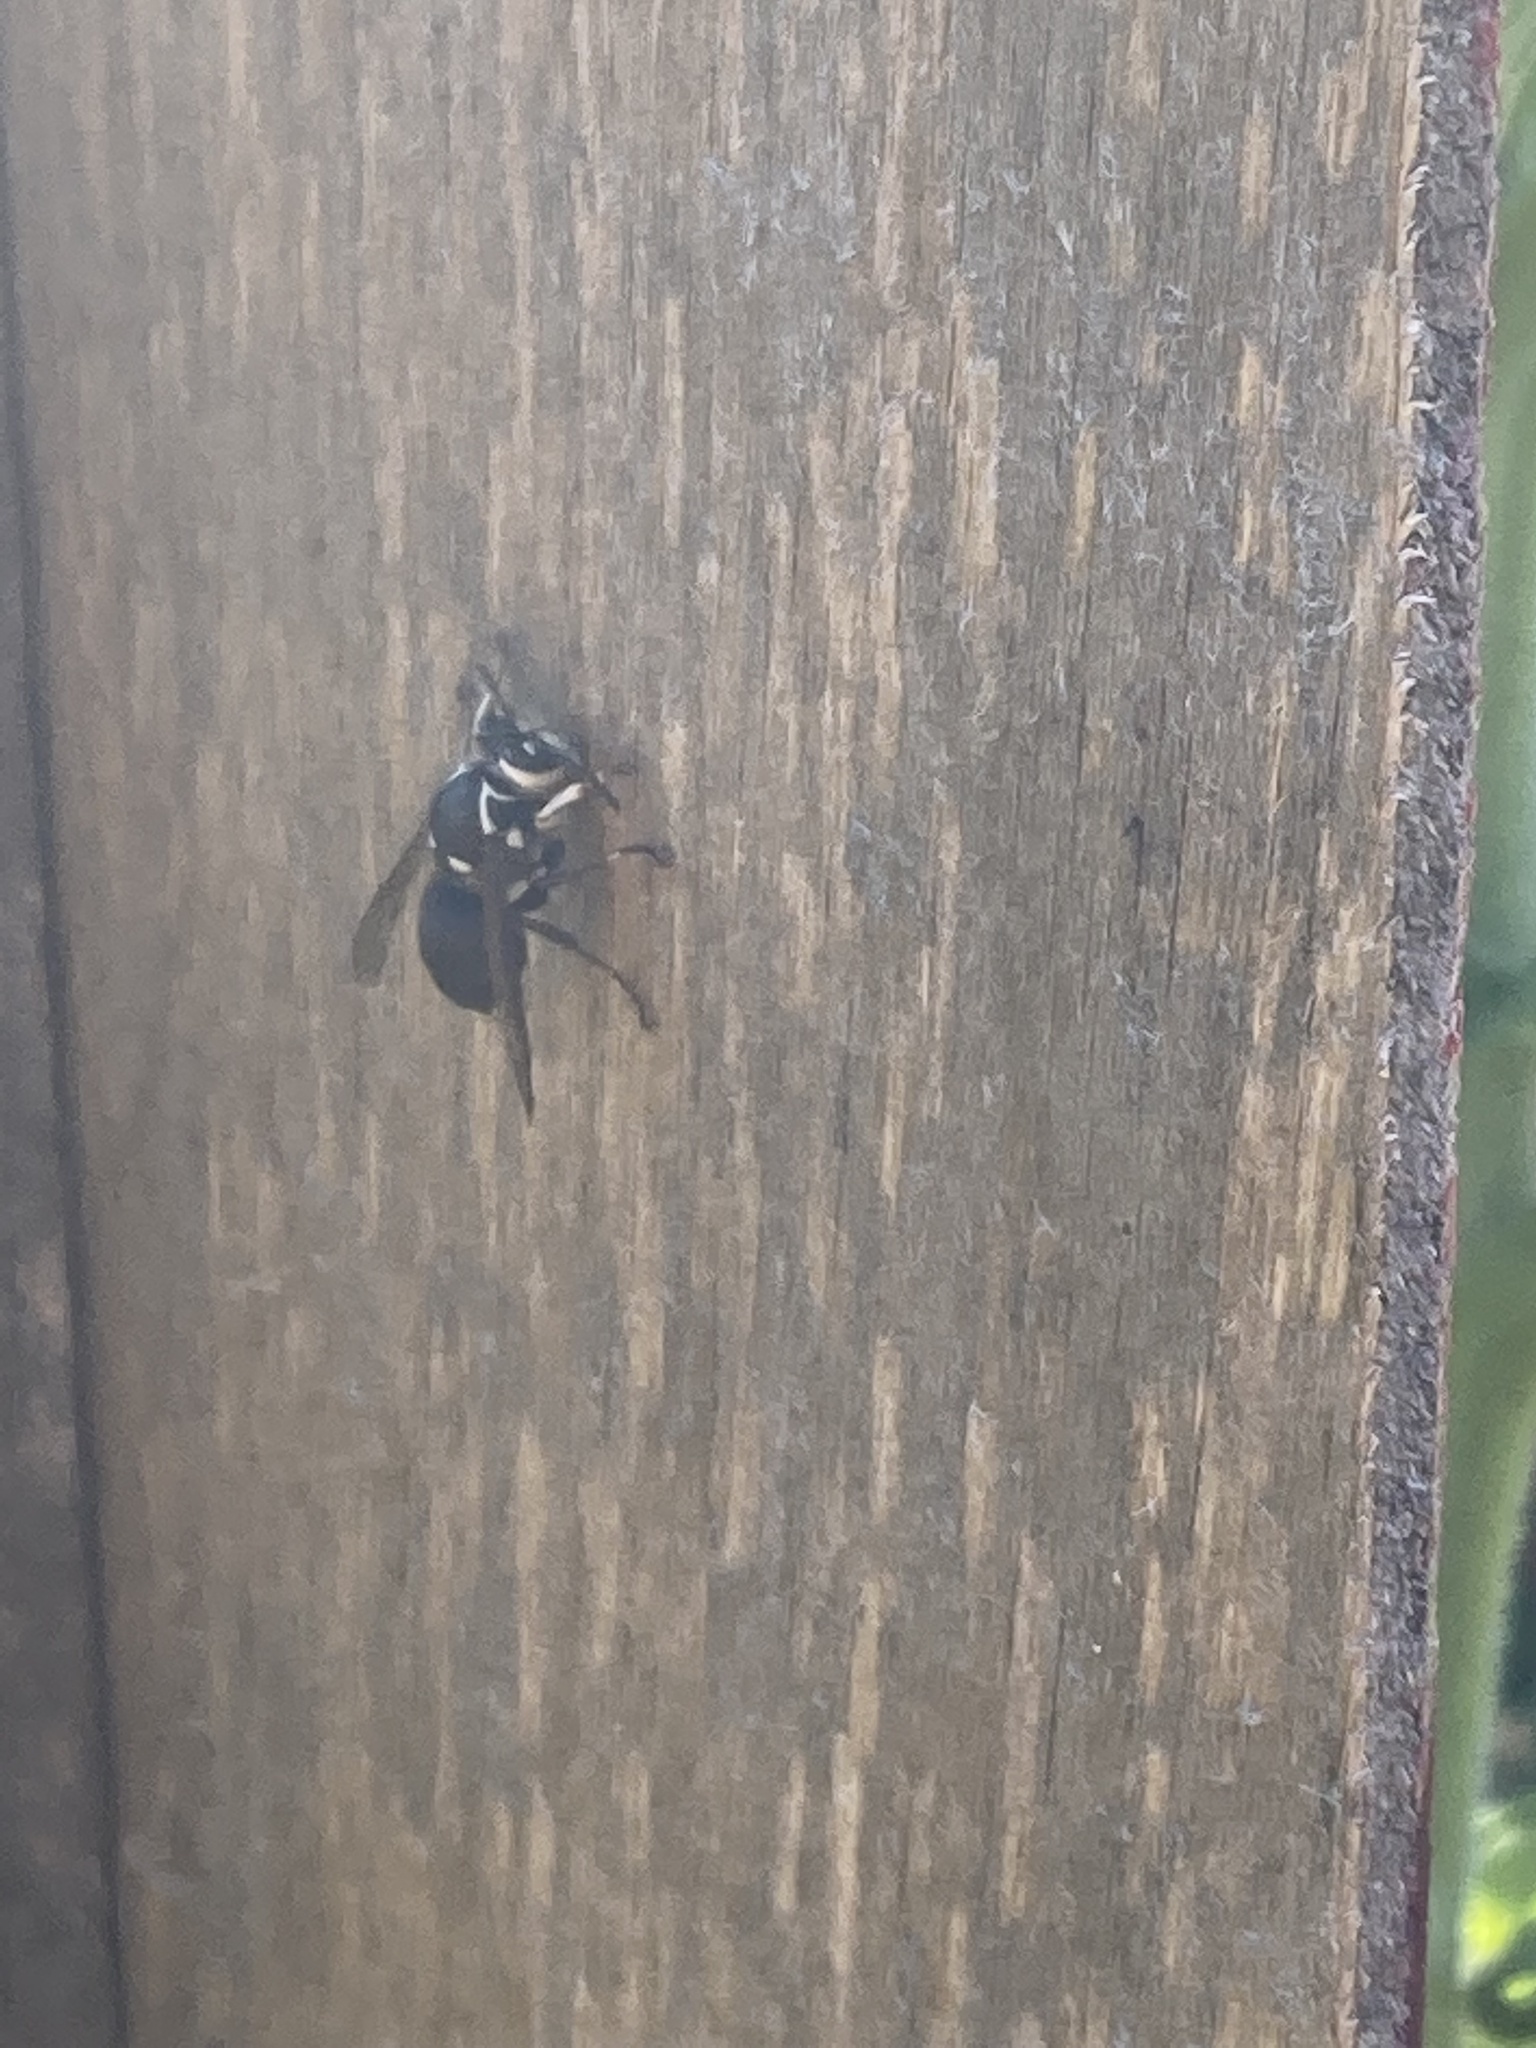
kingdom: Animalia
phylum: Arthropoda
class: Insecta
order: Hymenoptera
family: Vespidae
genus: Dolichovespula
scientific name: Dolichovespula maculata
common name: Bald-faced hornet
